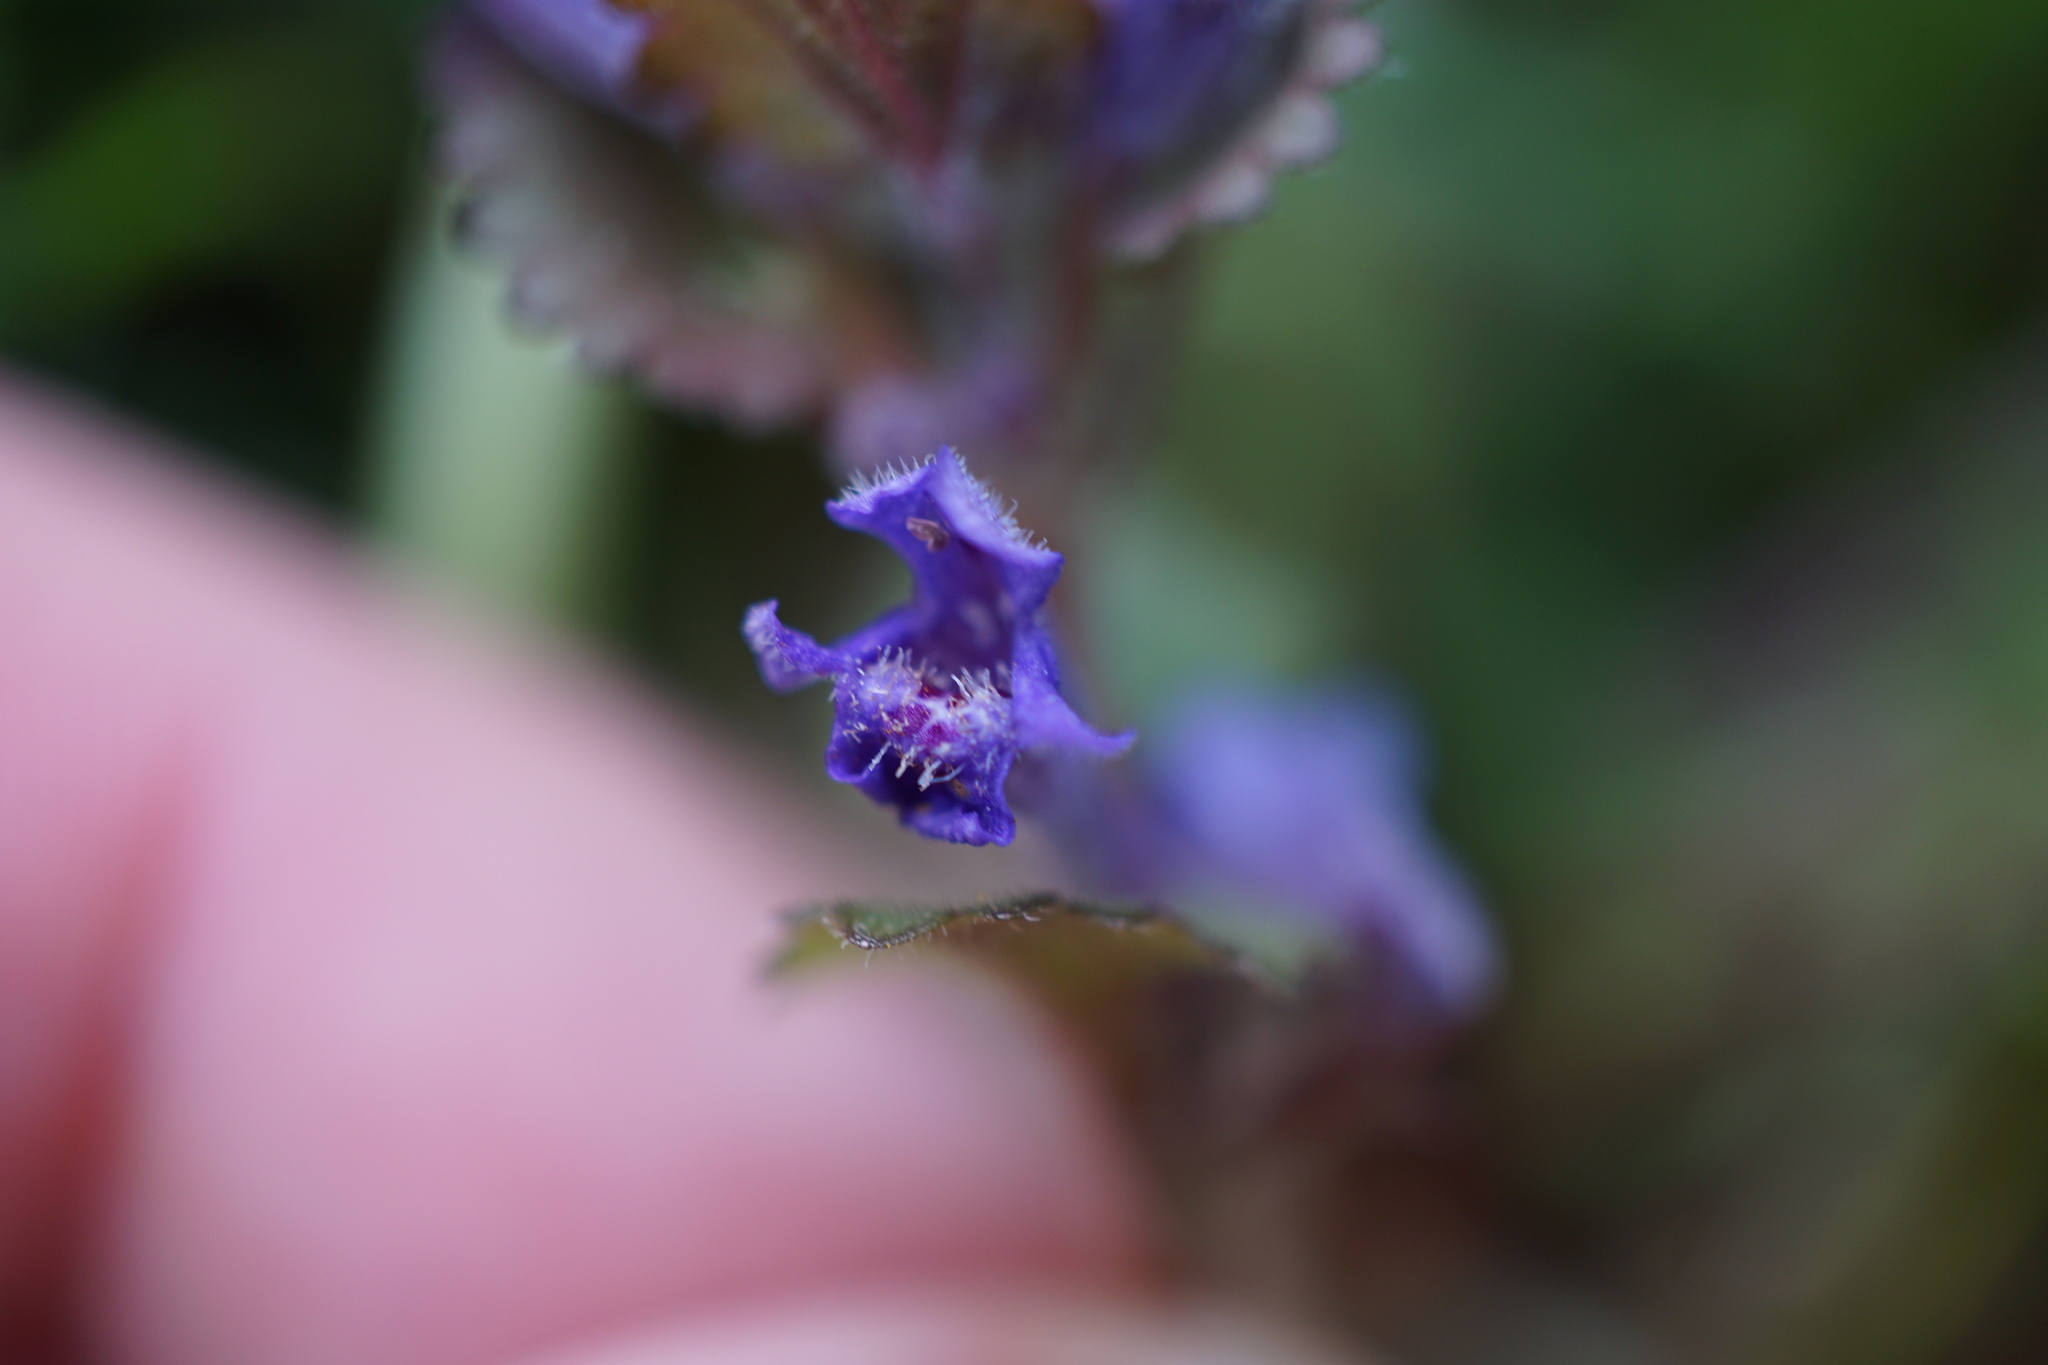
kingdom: Plantae
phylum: Tracheophyta
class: Magnoliopsida
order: Lamiales
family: Lamiaceae
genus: Glechoma
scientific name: Glechoma hederacea
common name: Ground ivy
